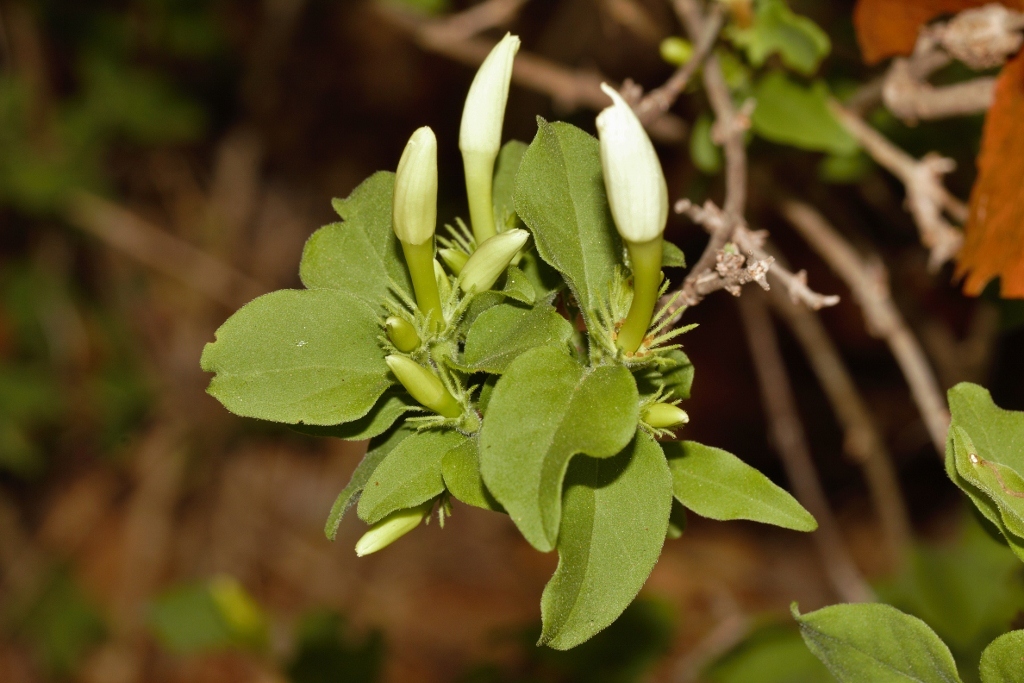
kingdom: Plantae
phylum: Tracheophyta
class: Magnoliopsida
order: Lamiales
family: Oleaceae
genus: Jasminum
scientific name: Jasminum stenolobum
